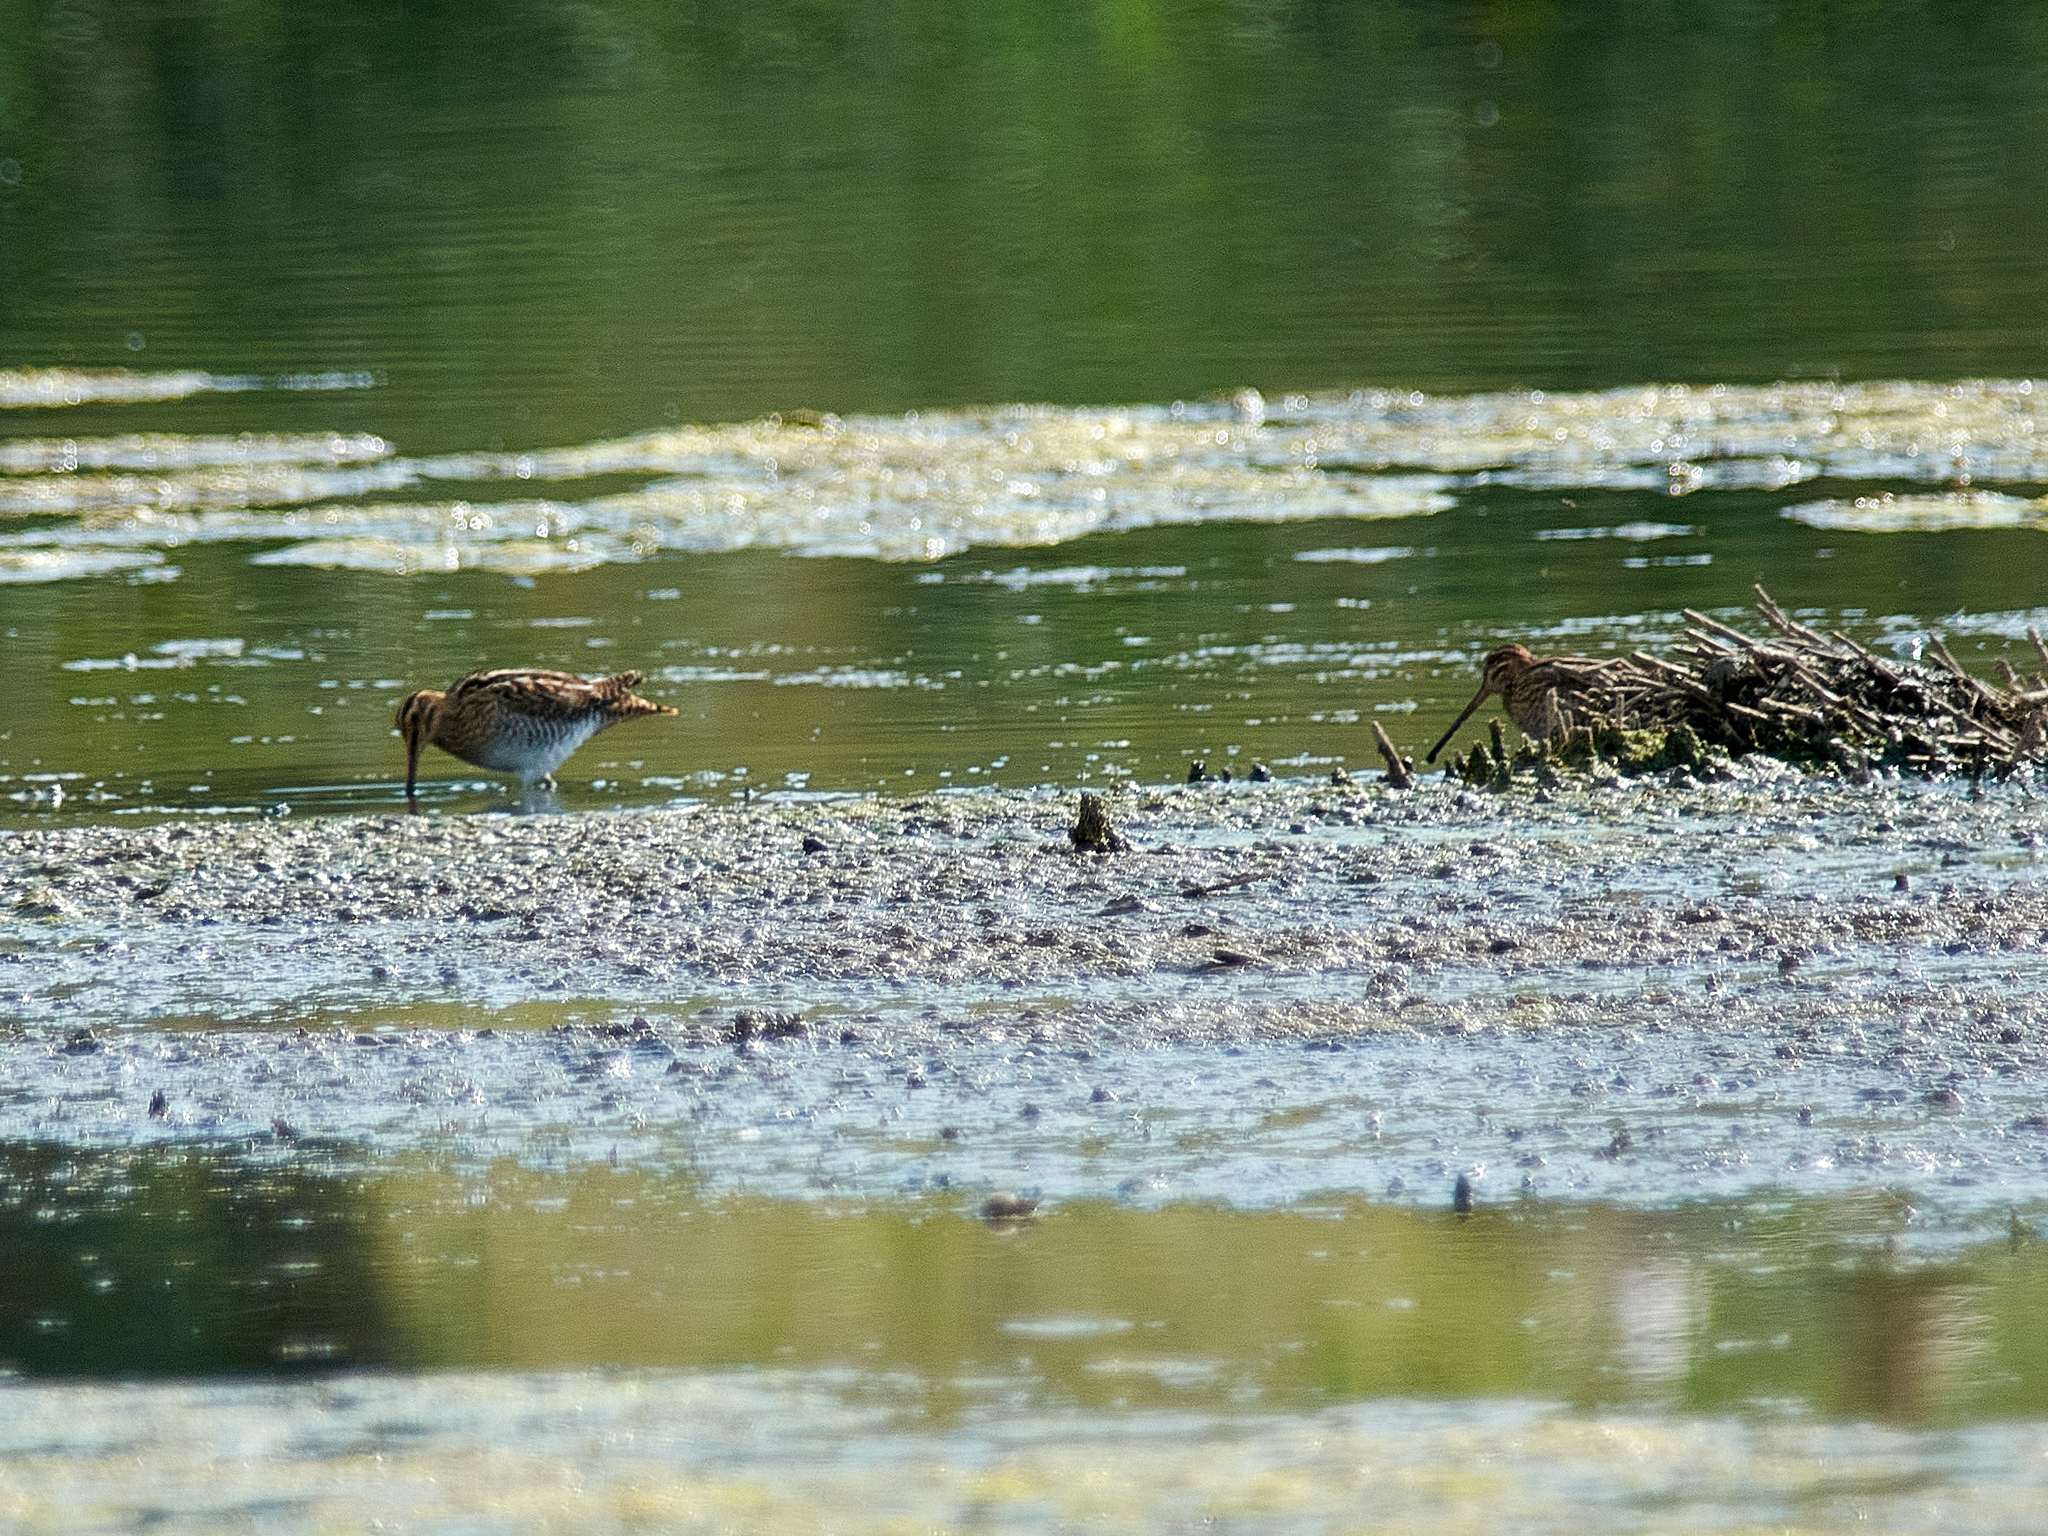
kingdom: Animalia
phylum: Chordata
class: Aves
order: Charadriiformes
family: Scolopacidae
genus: Gallinago
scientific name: Gallinago gallinago
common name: Common snipe
